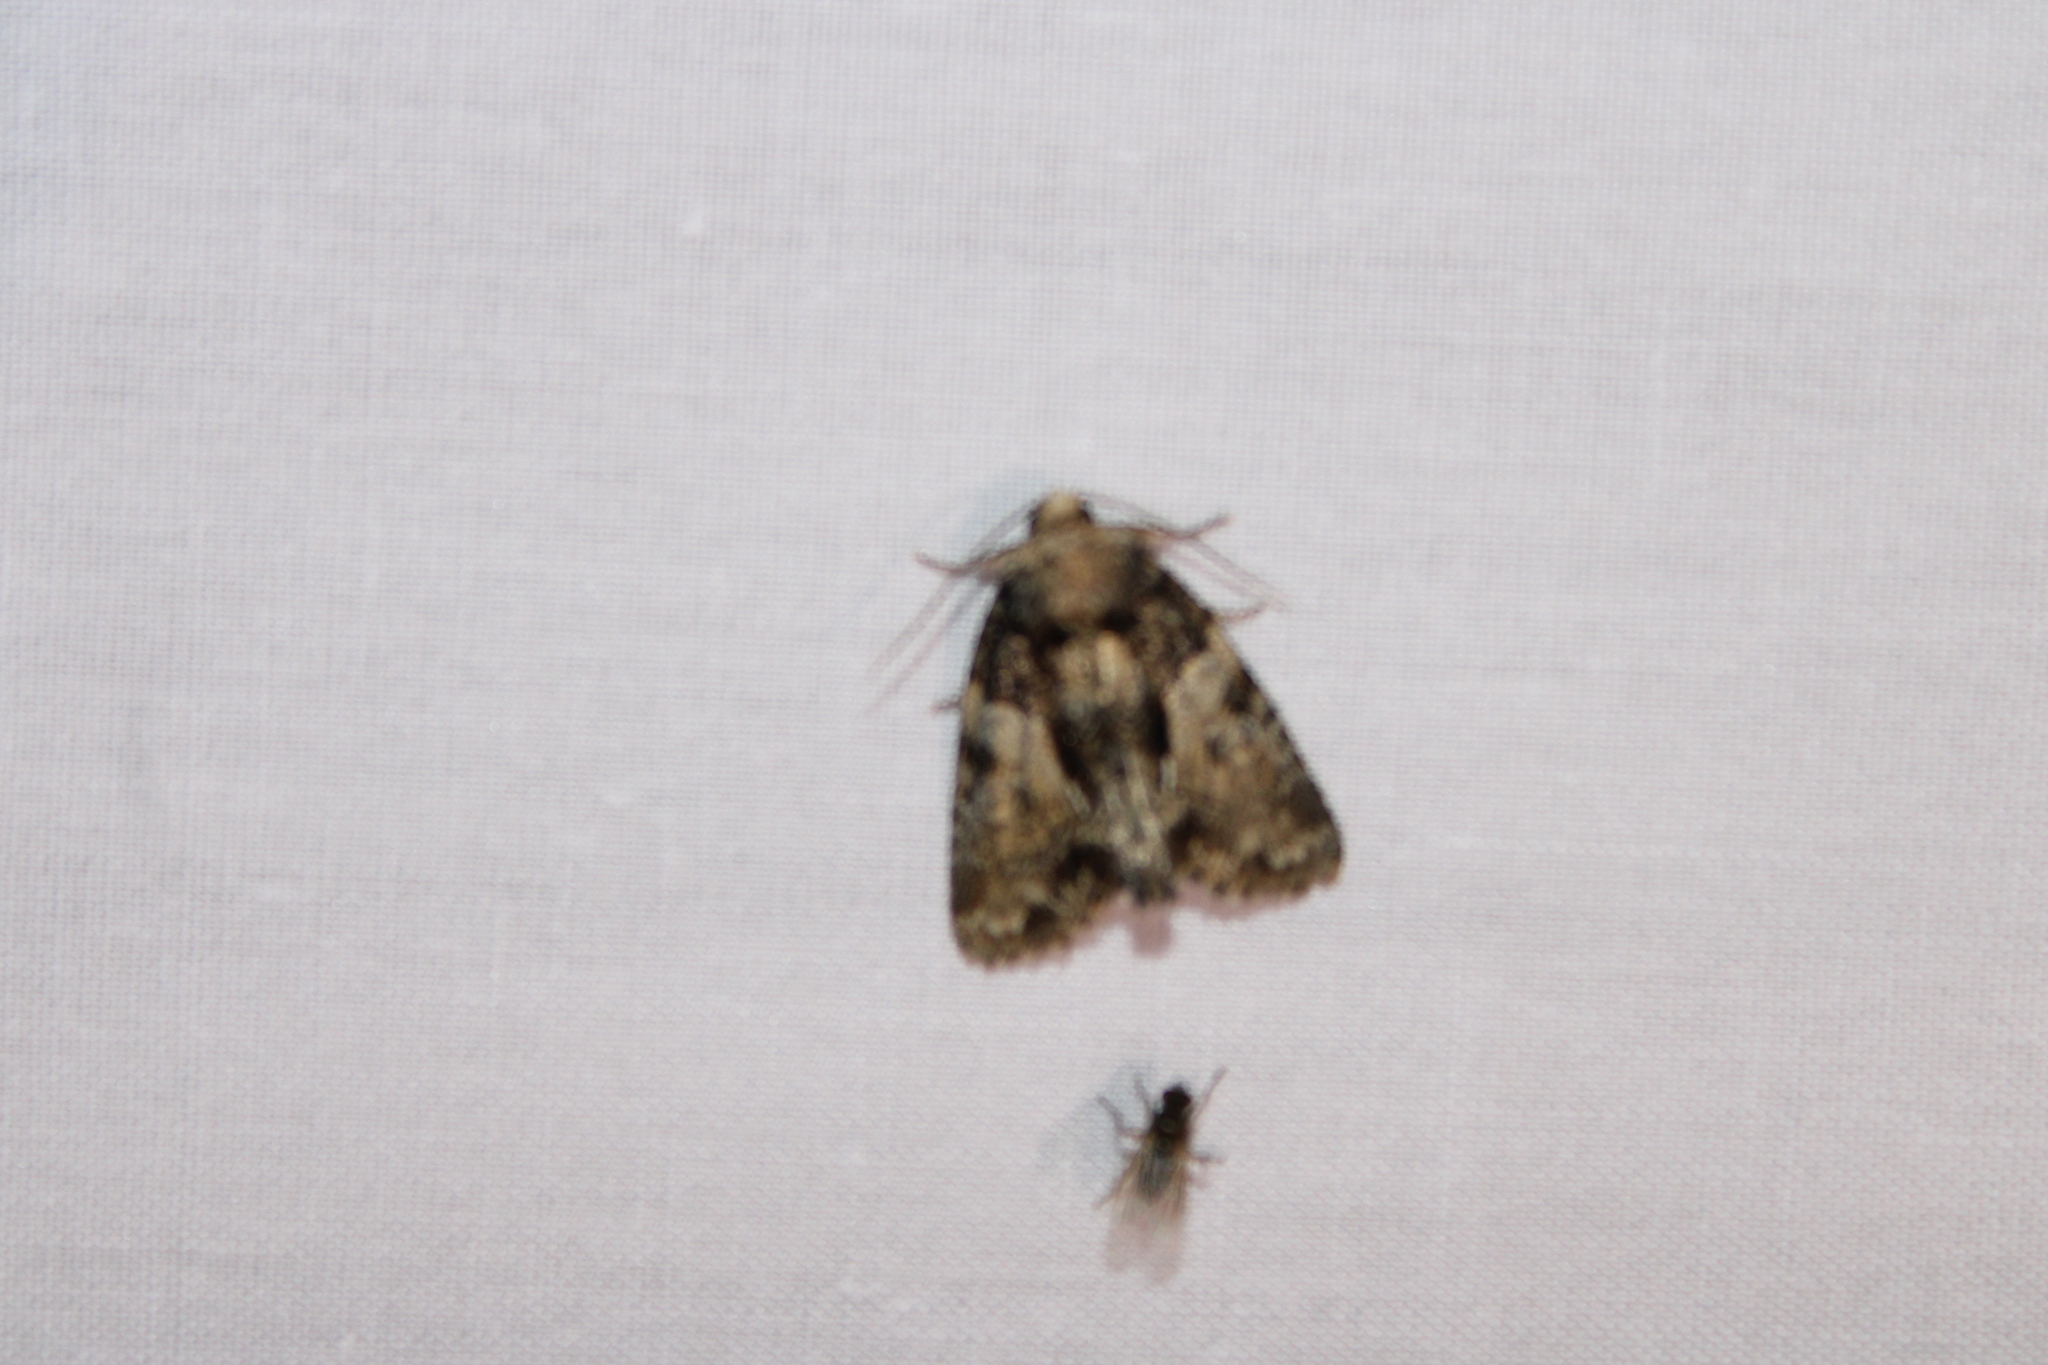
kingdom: Animalia
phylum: Arthropoda
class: Insecta
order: Lepidoptera
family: Noctuidae
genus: Chytonix
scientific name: Chytonix palliatricula
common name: Cloaked marvel
